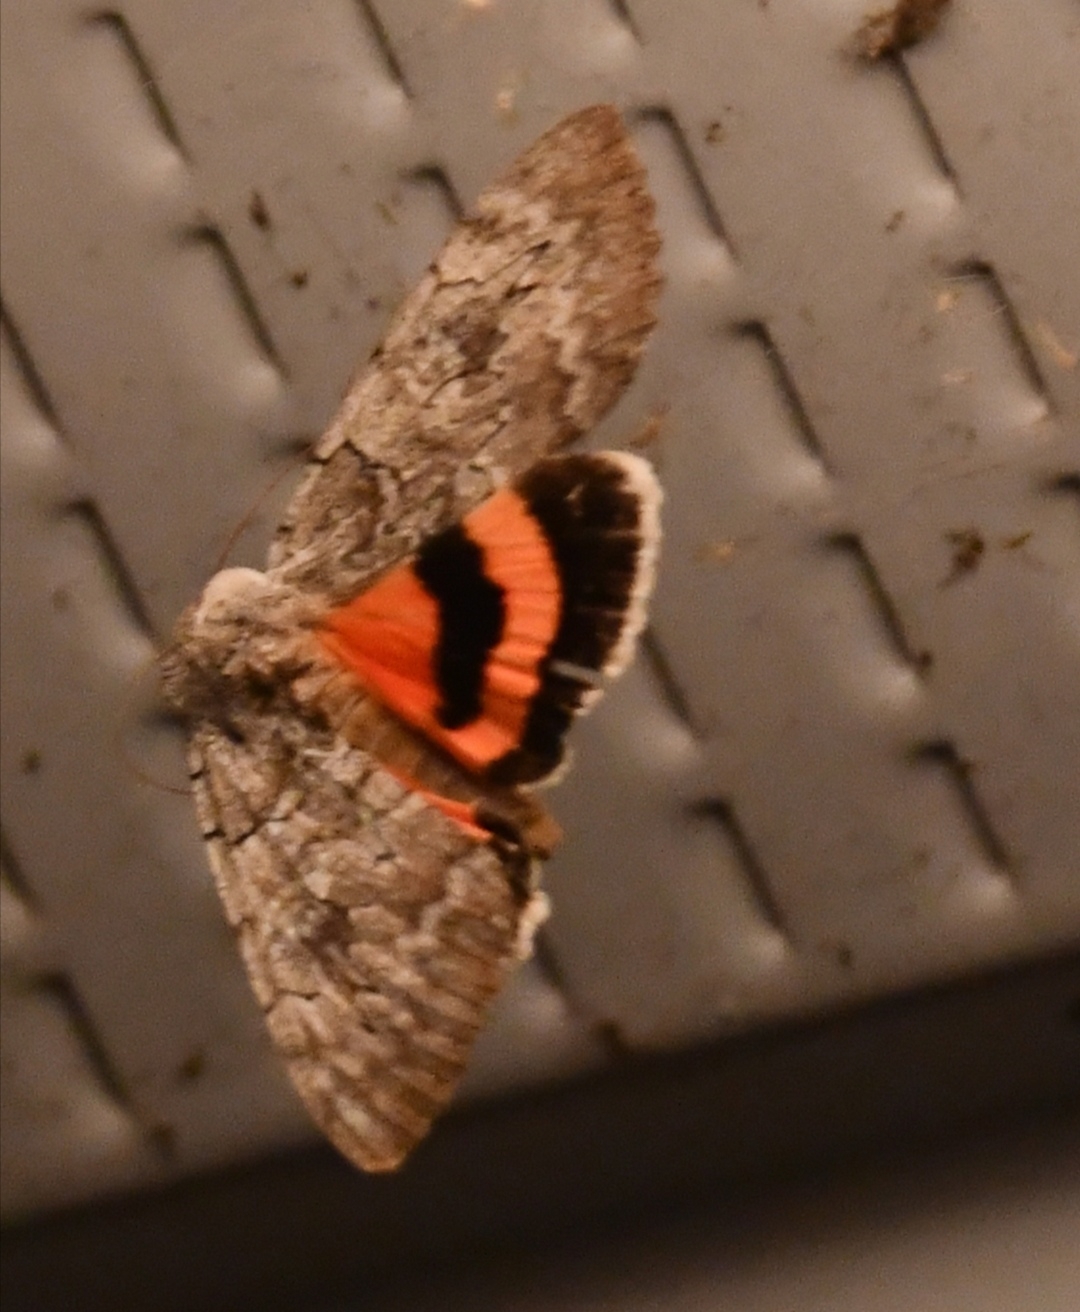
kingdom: Animalia
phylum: Arthropoda
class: Insecta
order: Lepidoptera
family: Erebidae
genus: Catocala
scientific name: Catocala concumbens
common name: Pink underwing
